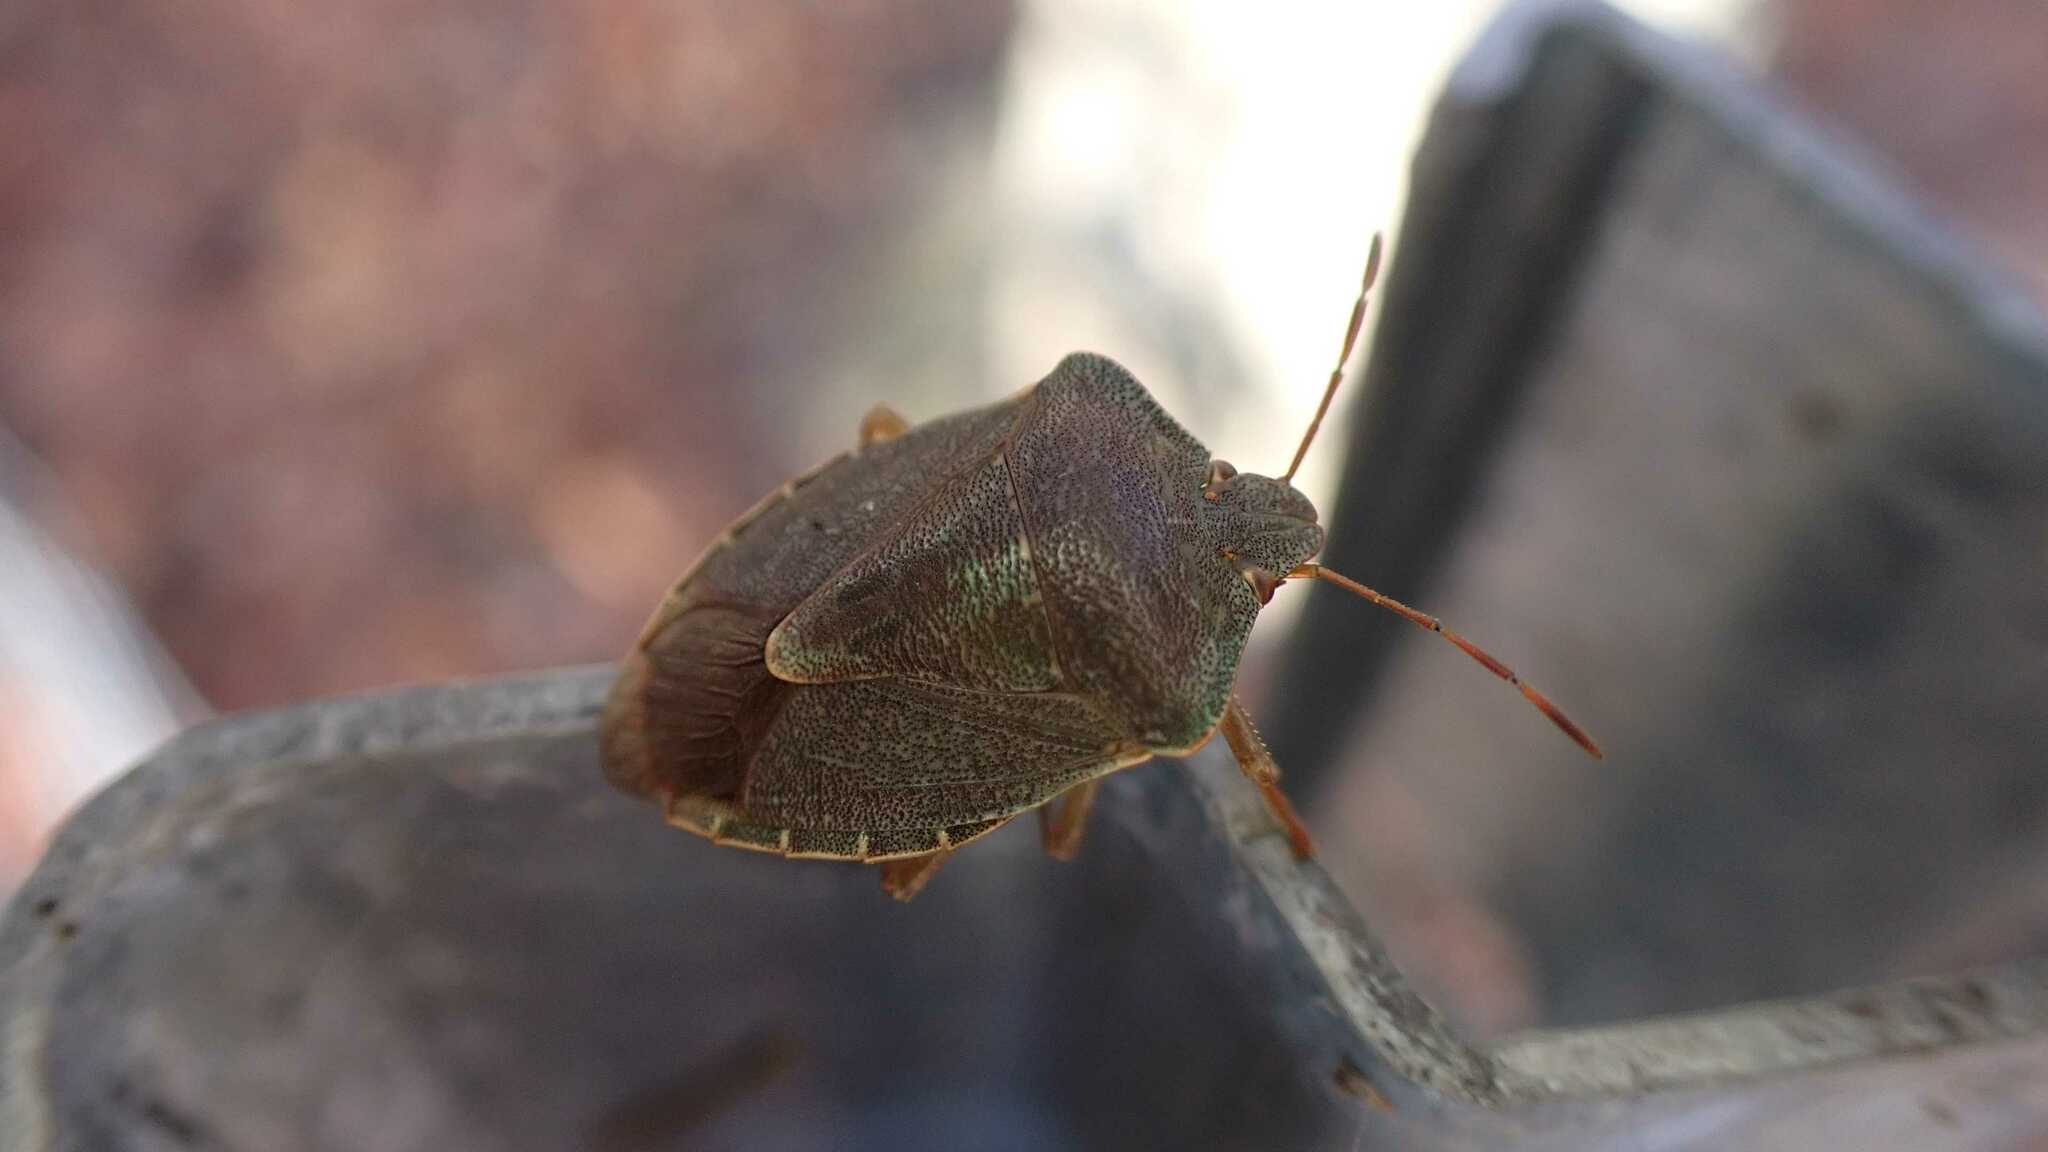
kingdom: Animalia
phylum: Arthropoda
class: Insecta
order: Hemiptera
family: Pentatomidae
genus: Palomena
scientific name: Palomena prasina
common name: Green shieldbug
